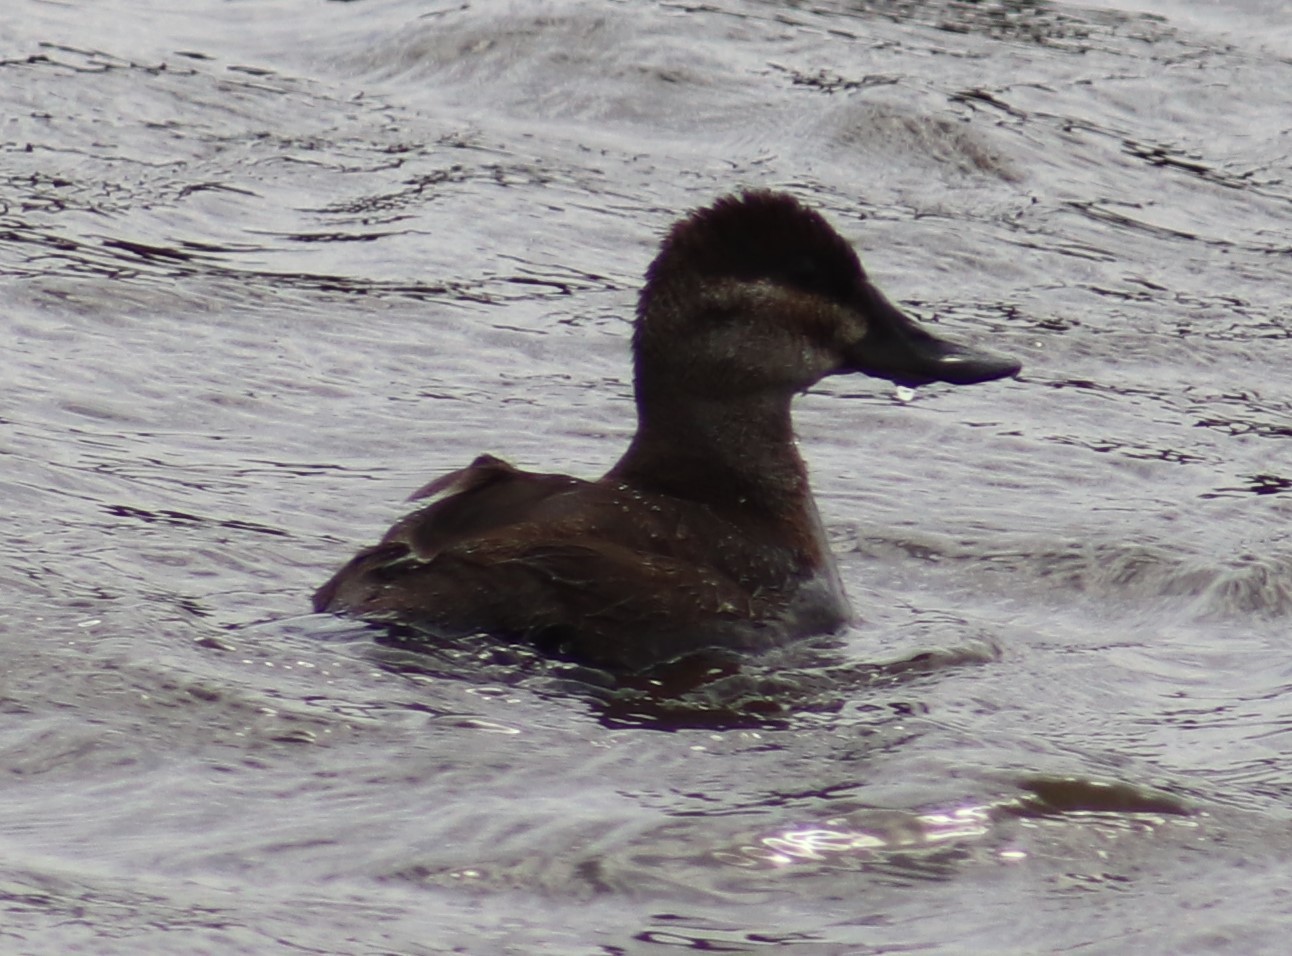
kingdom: Animalia
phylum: Chordata
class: Aves
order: Anseriformes
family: Anatidae
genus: Oxyura
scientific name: Oxyura jamaicensis
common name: Ruddy duck
